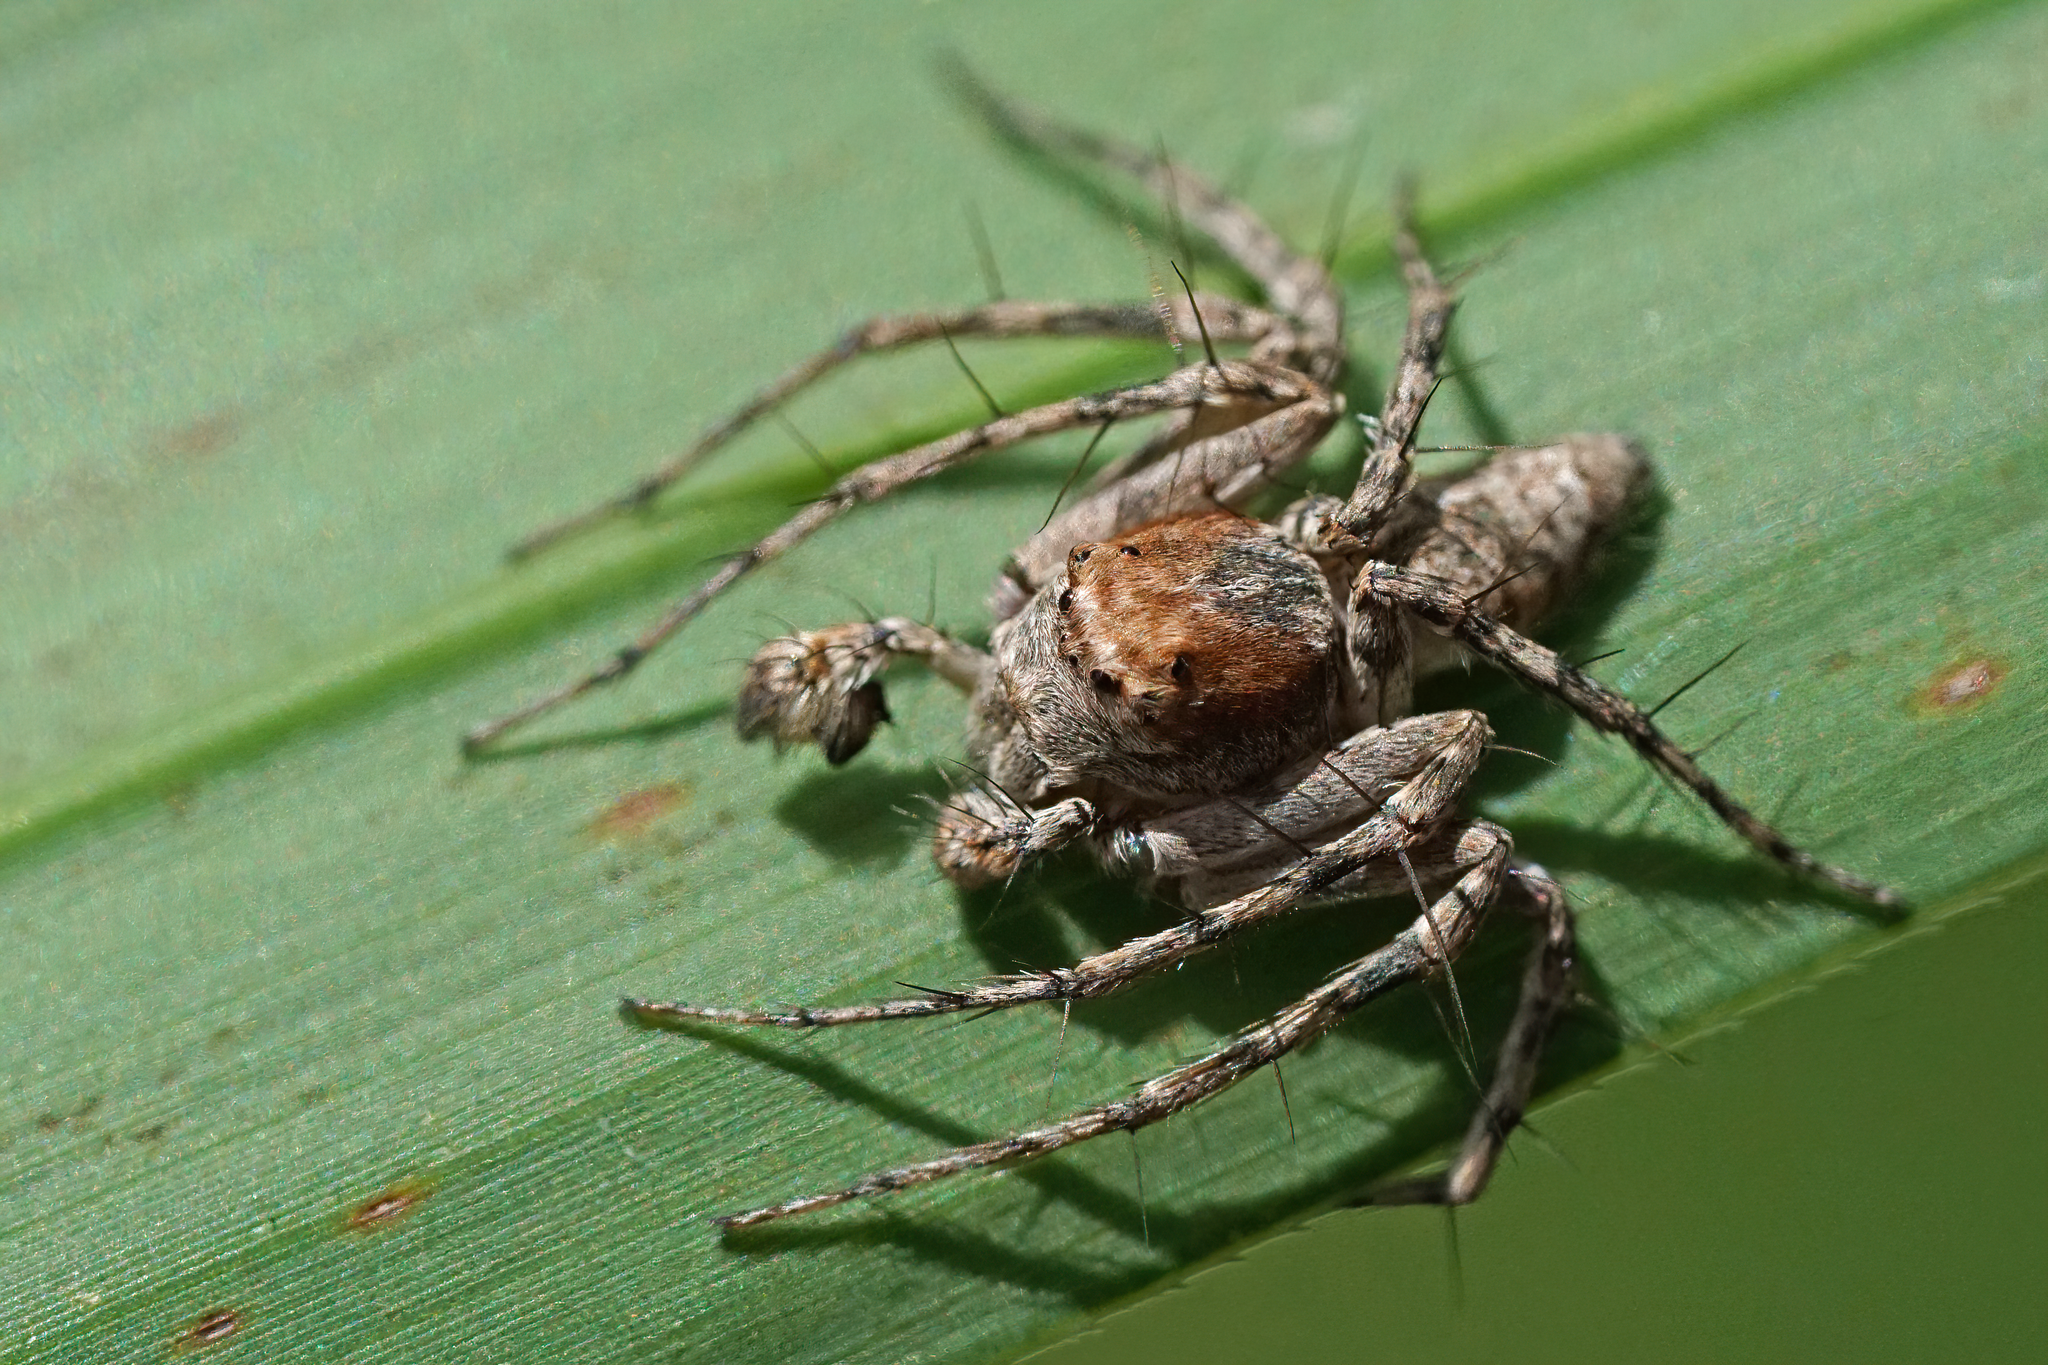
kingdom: Animalia
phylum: Arthropoda
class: Arachnida
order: Araneae
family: Oxyopidae
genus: Hamataliwa
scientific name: Hamataliwa grisea
